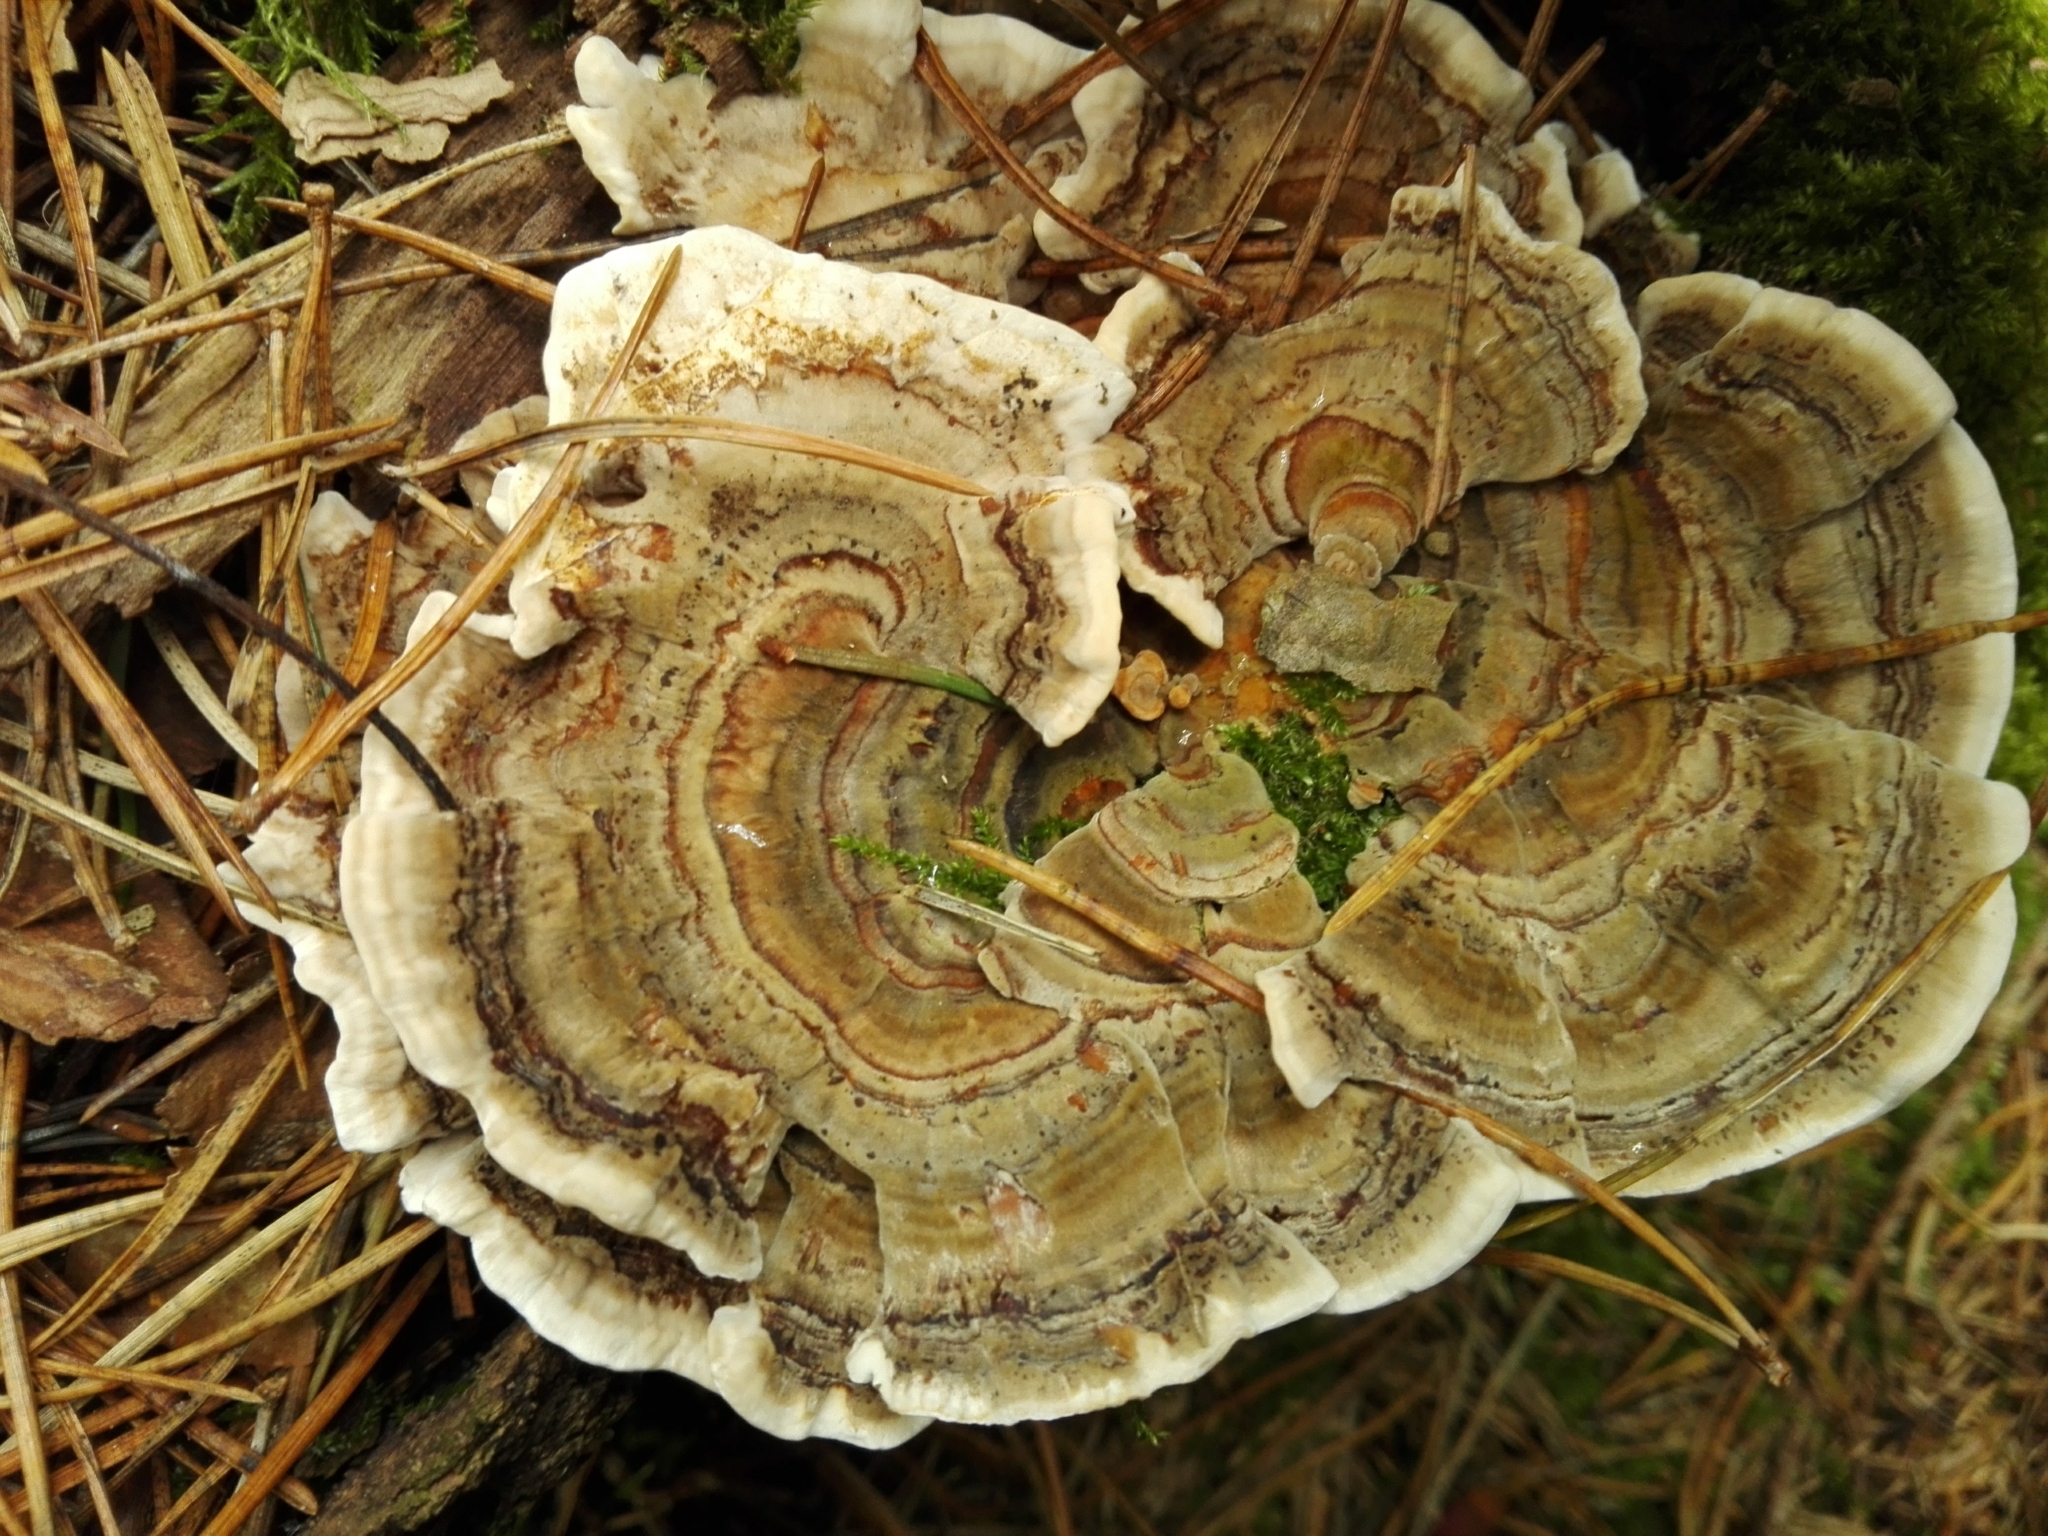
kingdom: Fungi
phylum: Basidiomycota
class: Agaricomycetes
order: Polyporales
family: Polyporaceae
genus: Trametes
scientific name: Trametes versicolor
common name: Turkeytail
